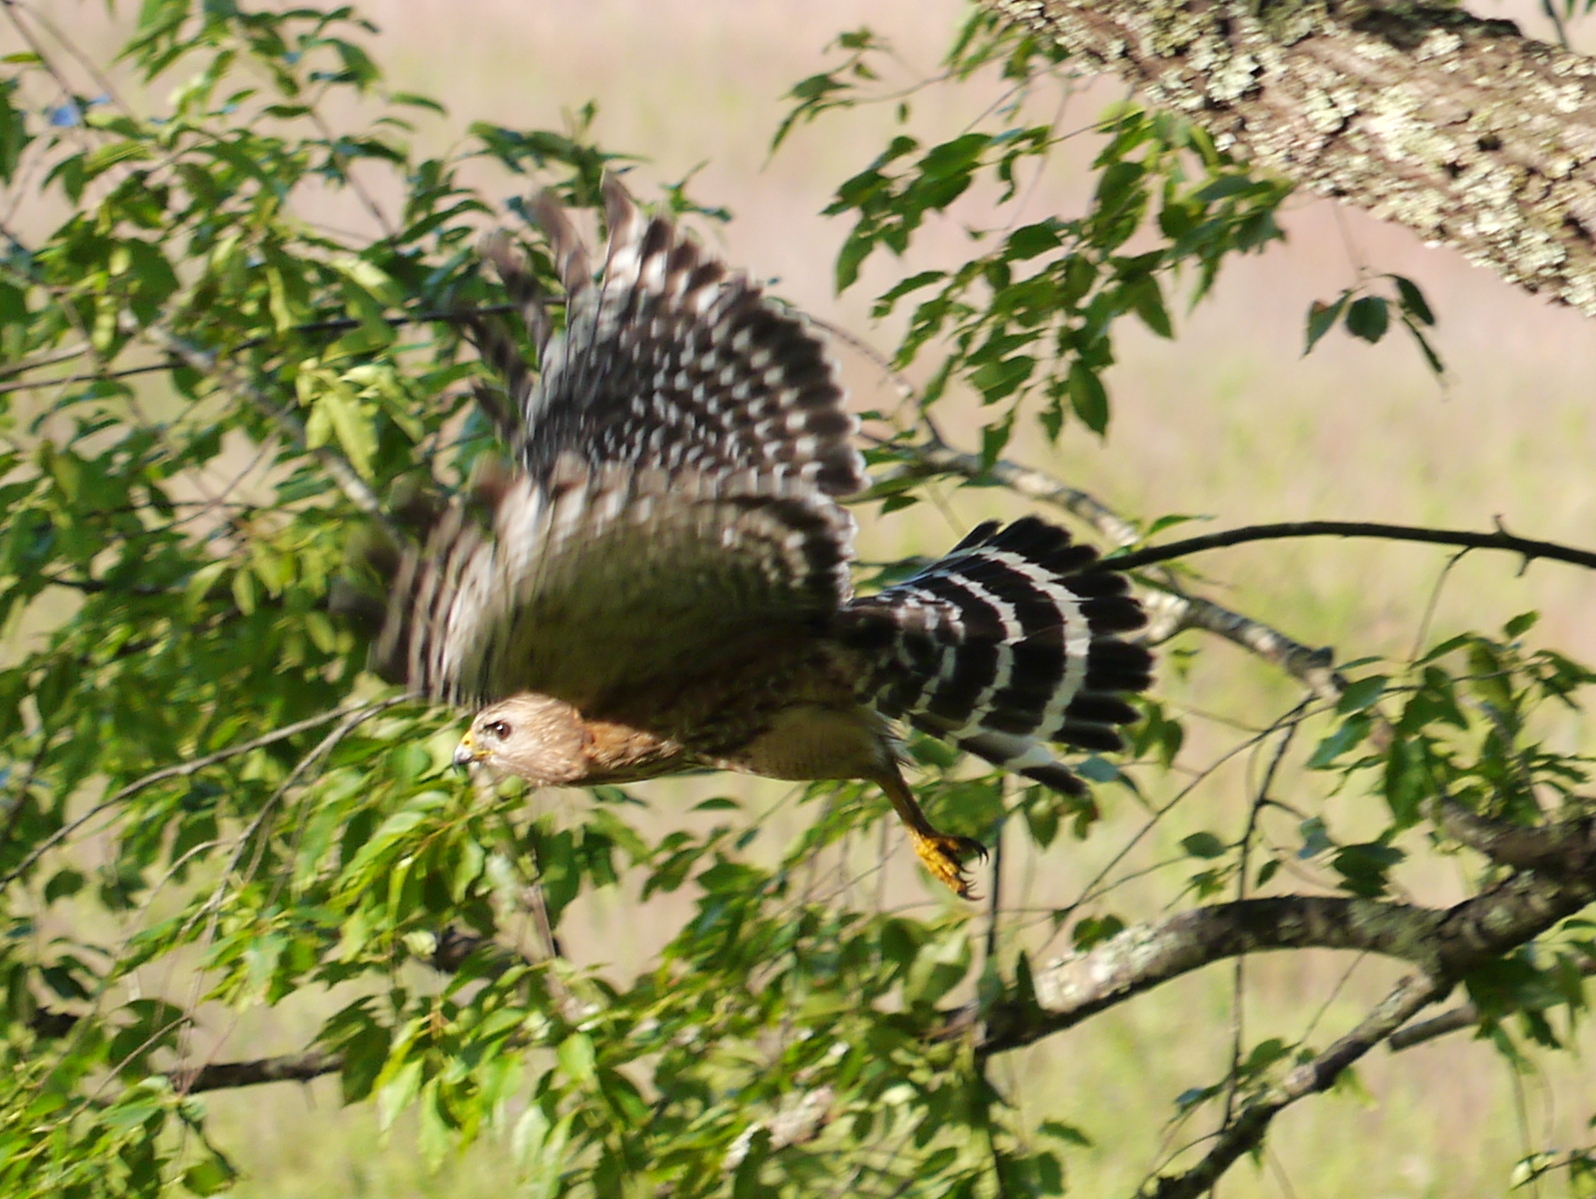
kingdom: Animalia
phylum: Chordata
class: Aves
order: Accipitriformes
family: Accipitridae
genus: Buteo
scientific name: Buteo lineatus
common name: Red-shouldered hawk
